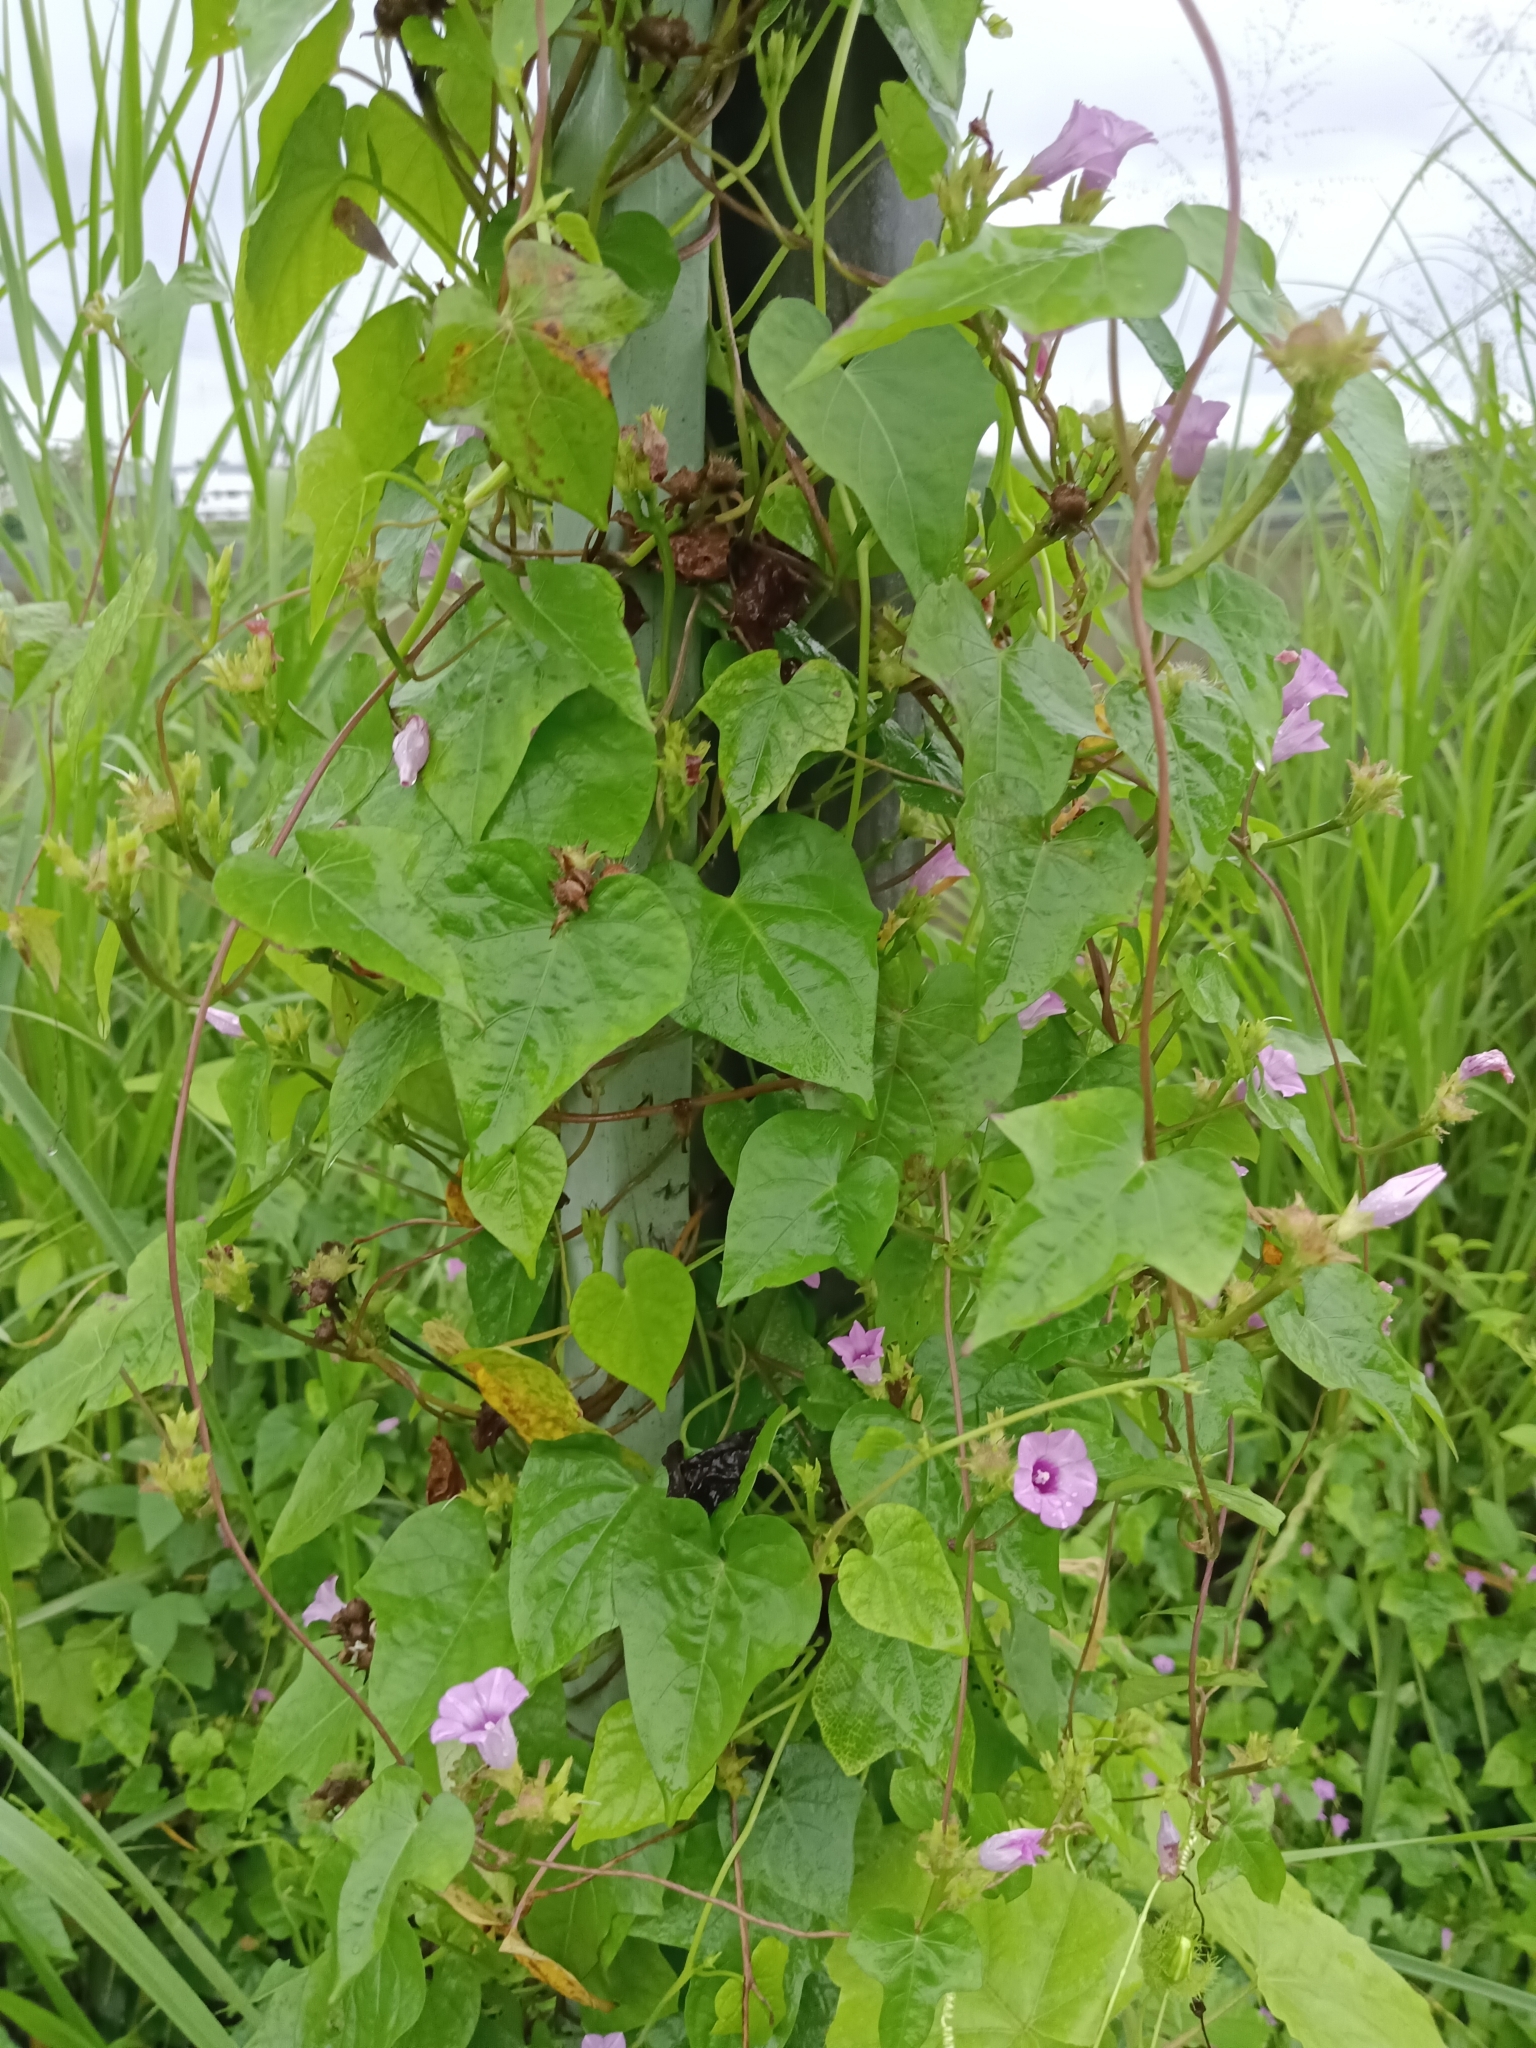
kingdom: Plantae
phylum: Tracheophyta
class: Magnoliopsida
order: Solanales
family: Convolvulaceae
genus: Ipomoea
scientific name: Ipomoea triloba
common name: Little-bell
